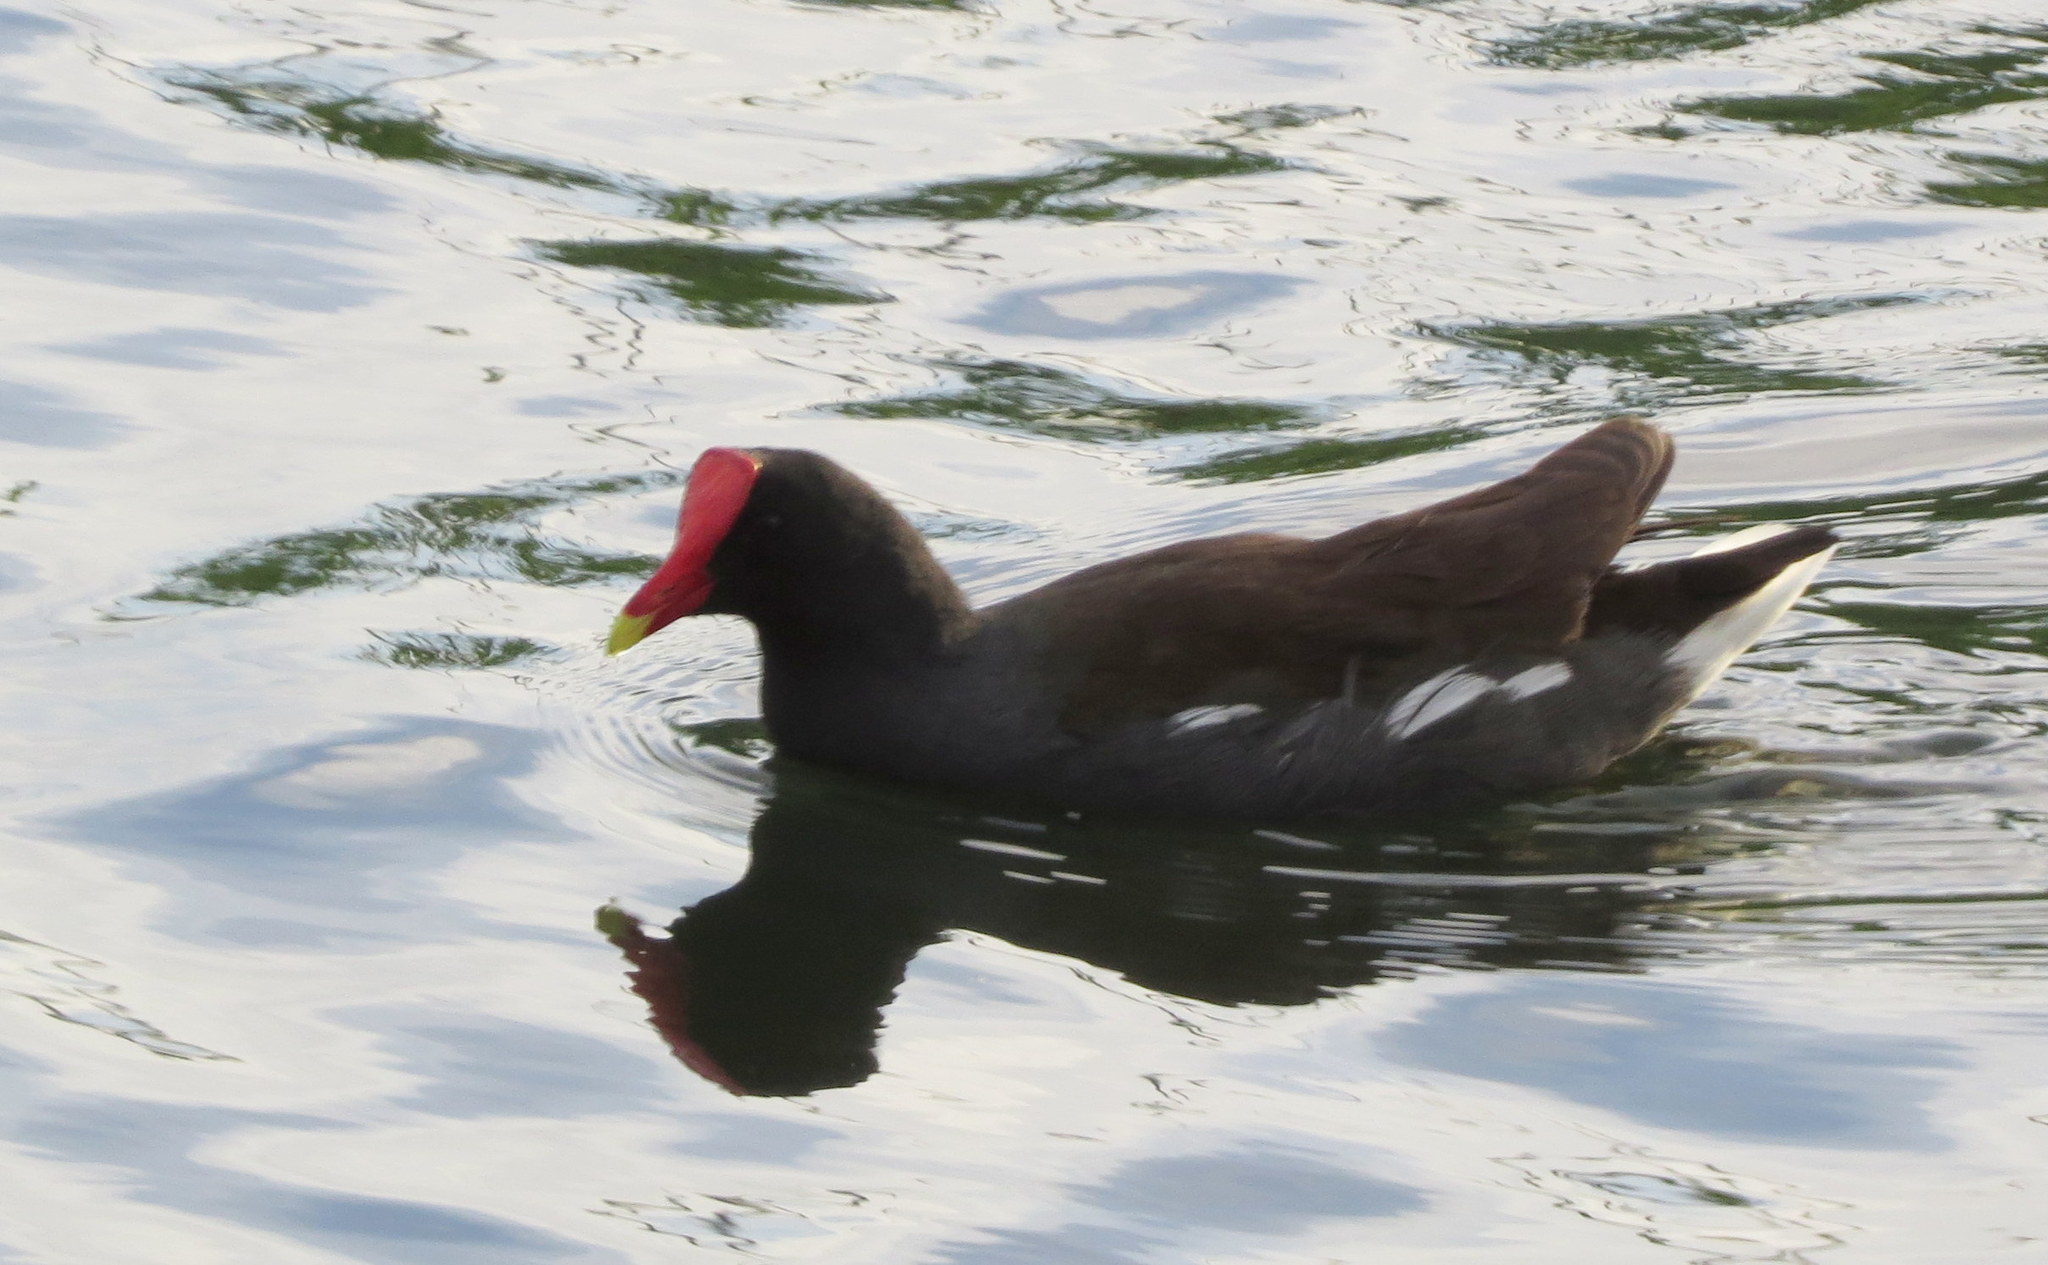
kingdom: Animalia
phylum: Chordata
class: Aves
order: Gruiformes
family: Rallidae
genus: Gallinula
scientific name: Gallinula chloropus
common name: Common moorhen
